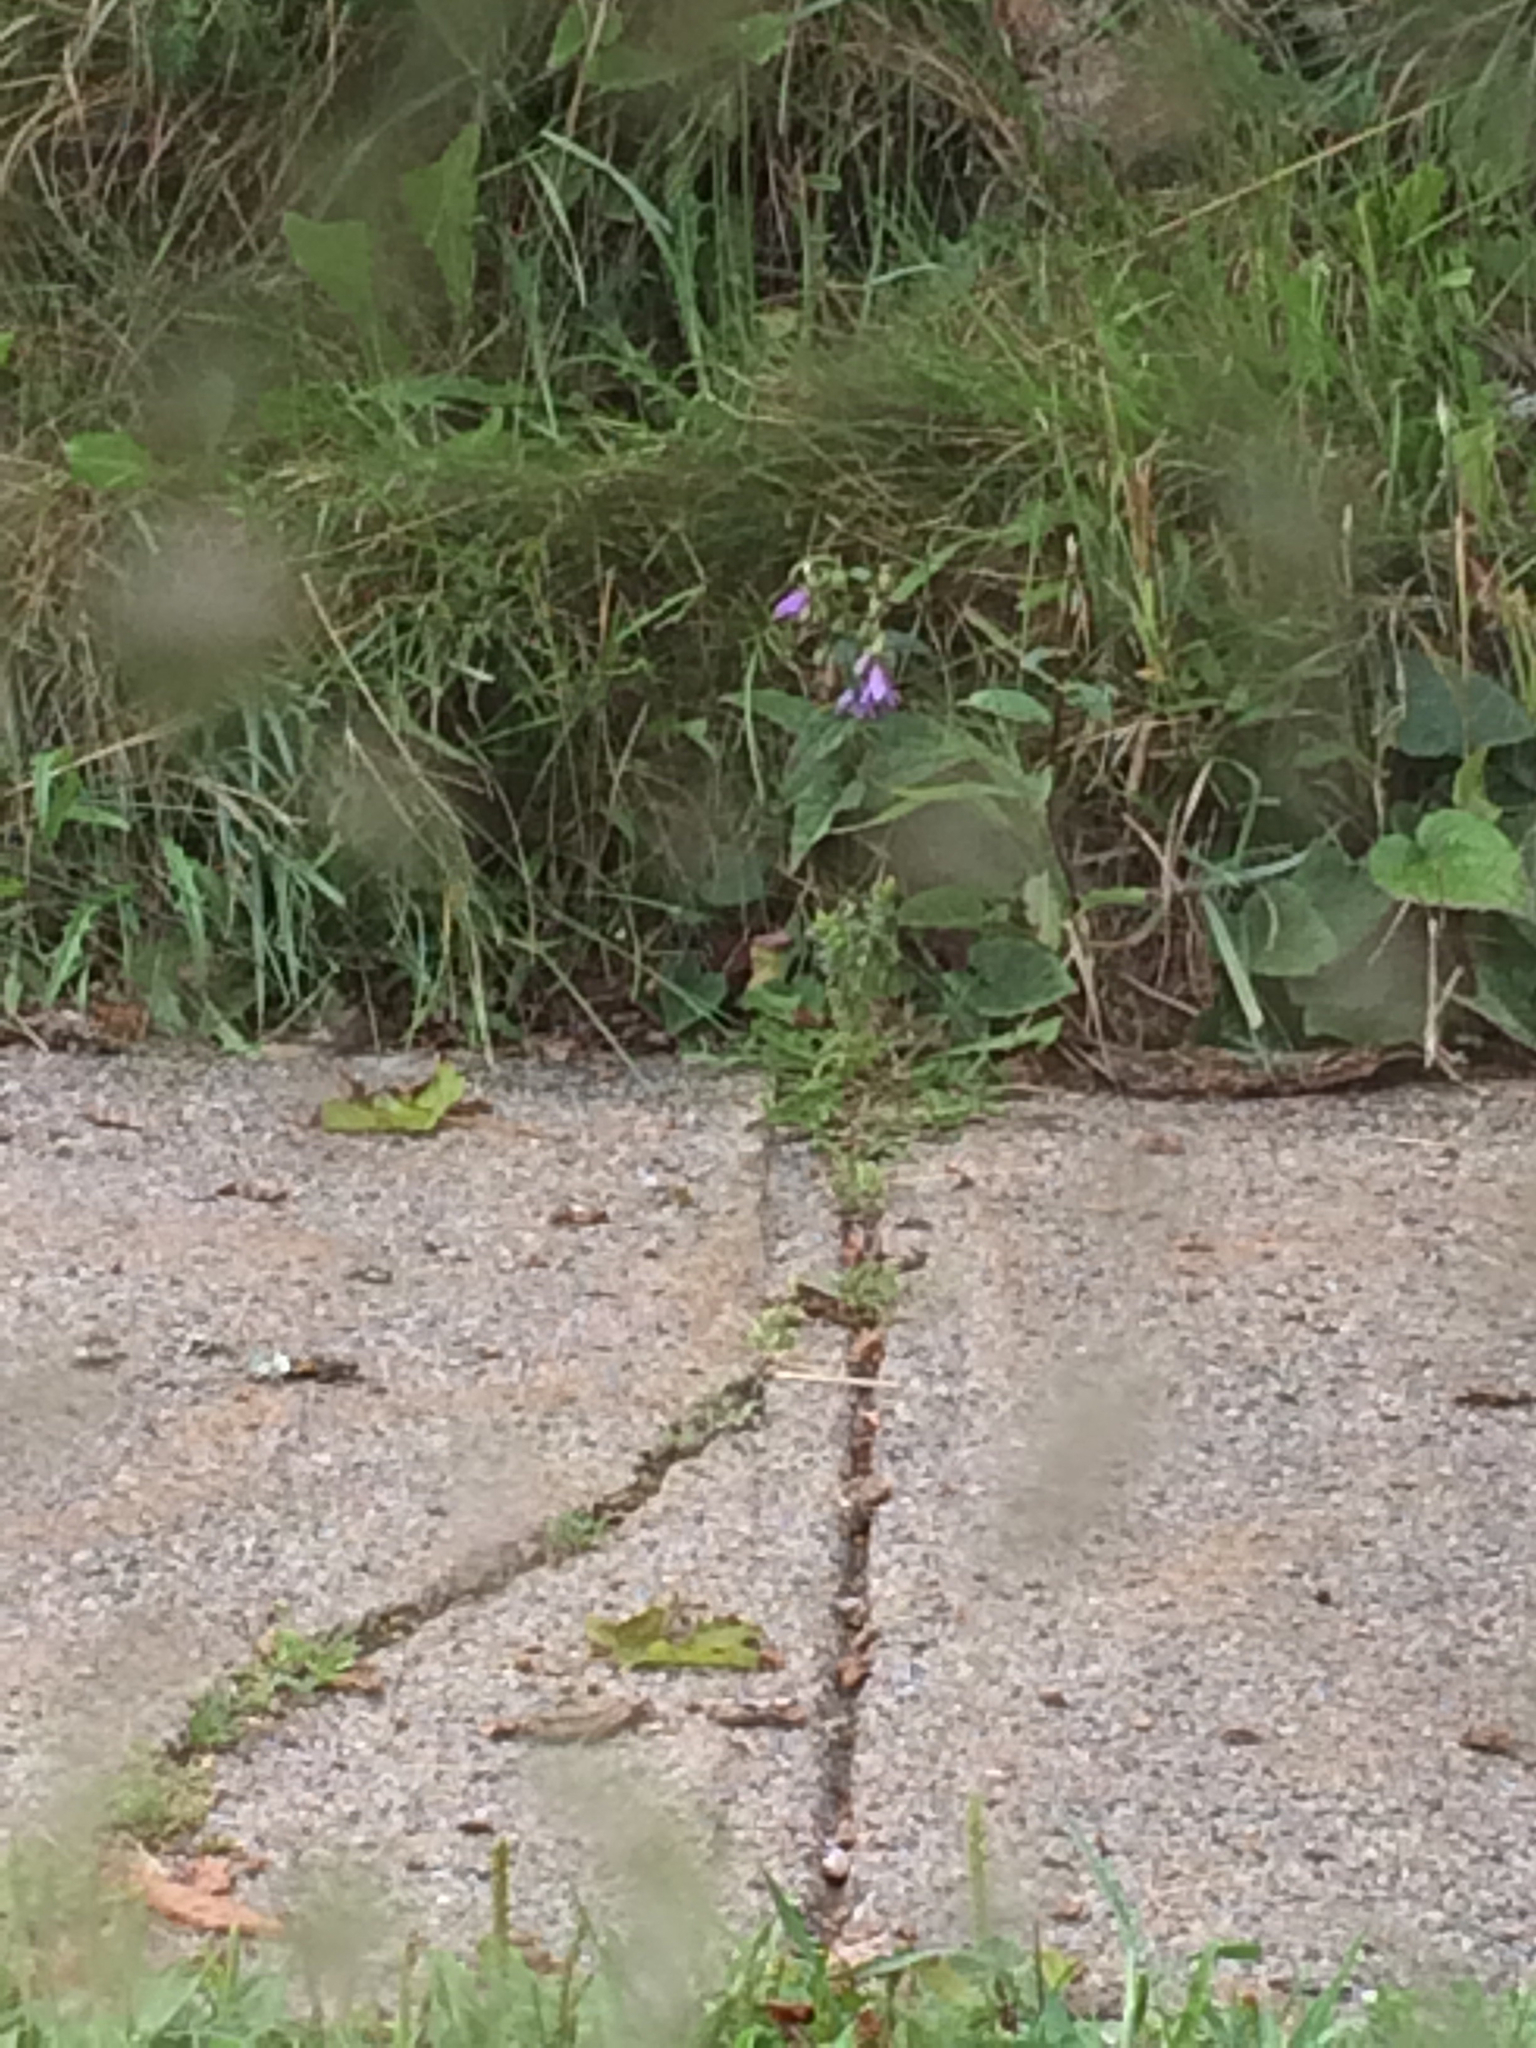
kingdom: Plantae
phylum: Tracheophyta
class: Magnoliopsida
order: Asterales
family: Campanulaceae
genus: Campanula
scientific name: Campanula rapunculoides
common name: Creeping bellflower
